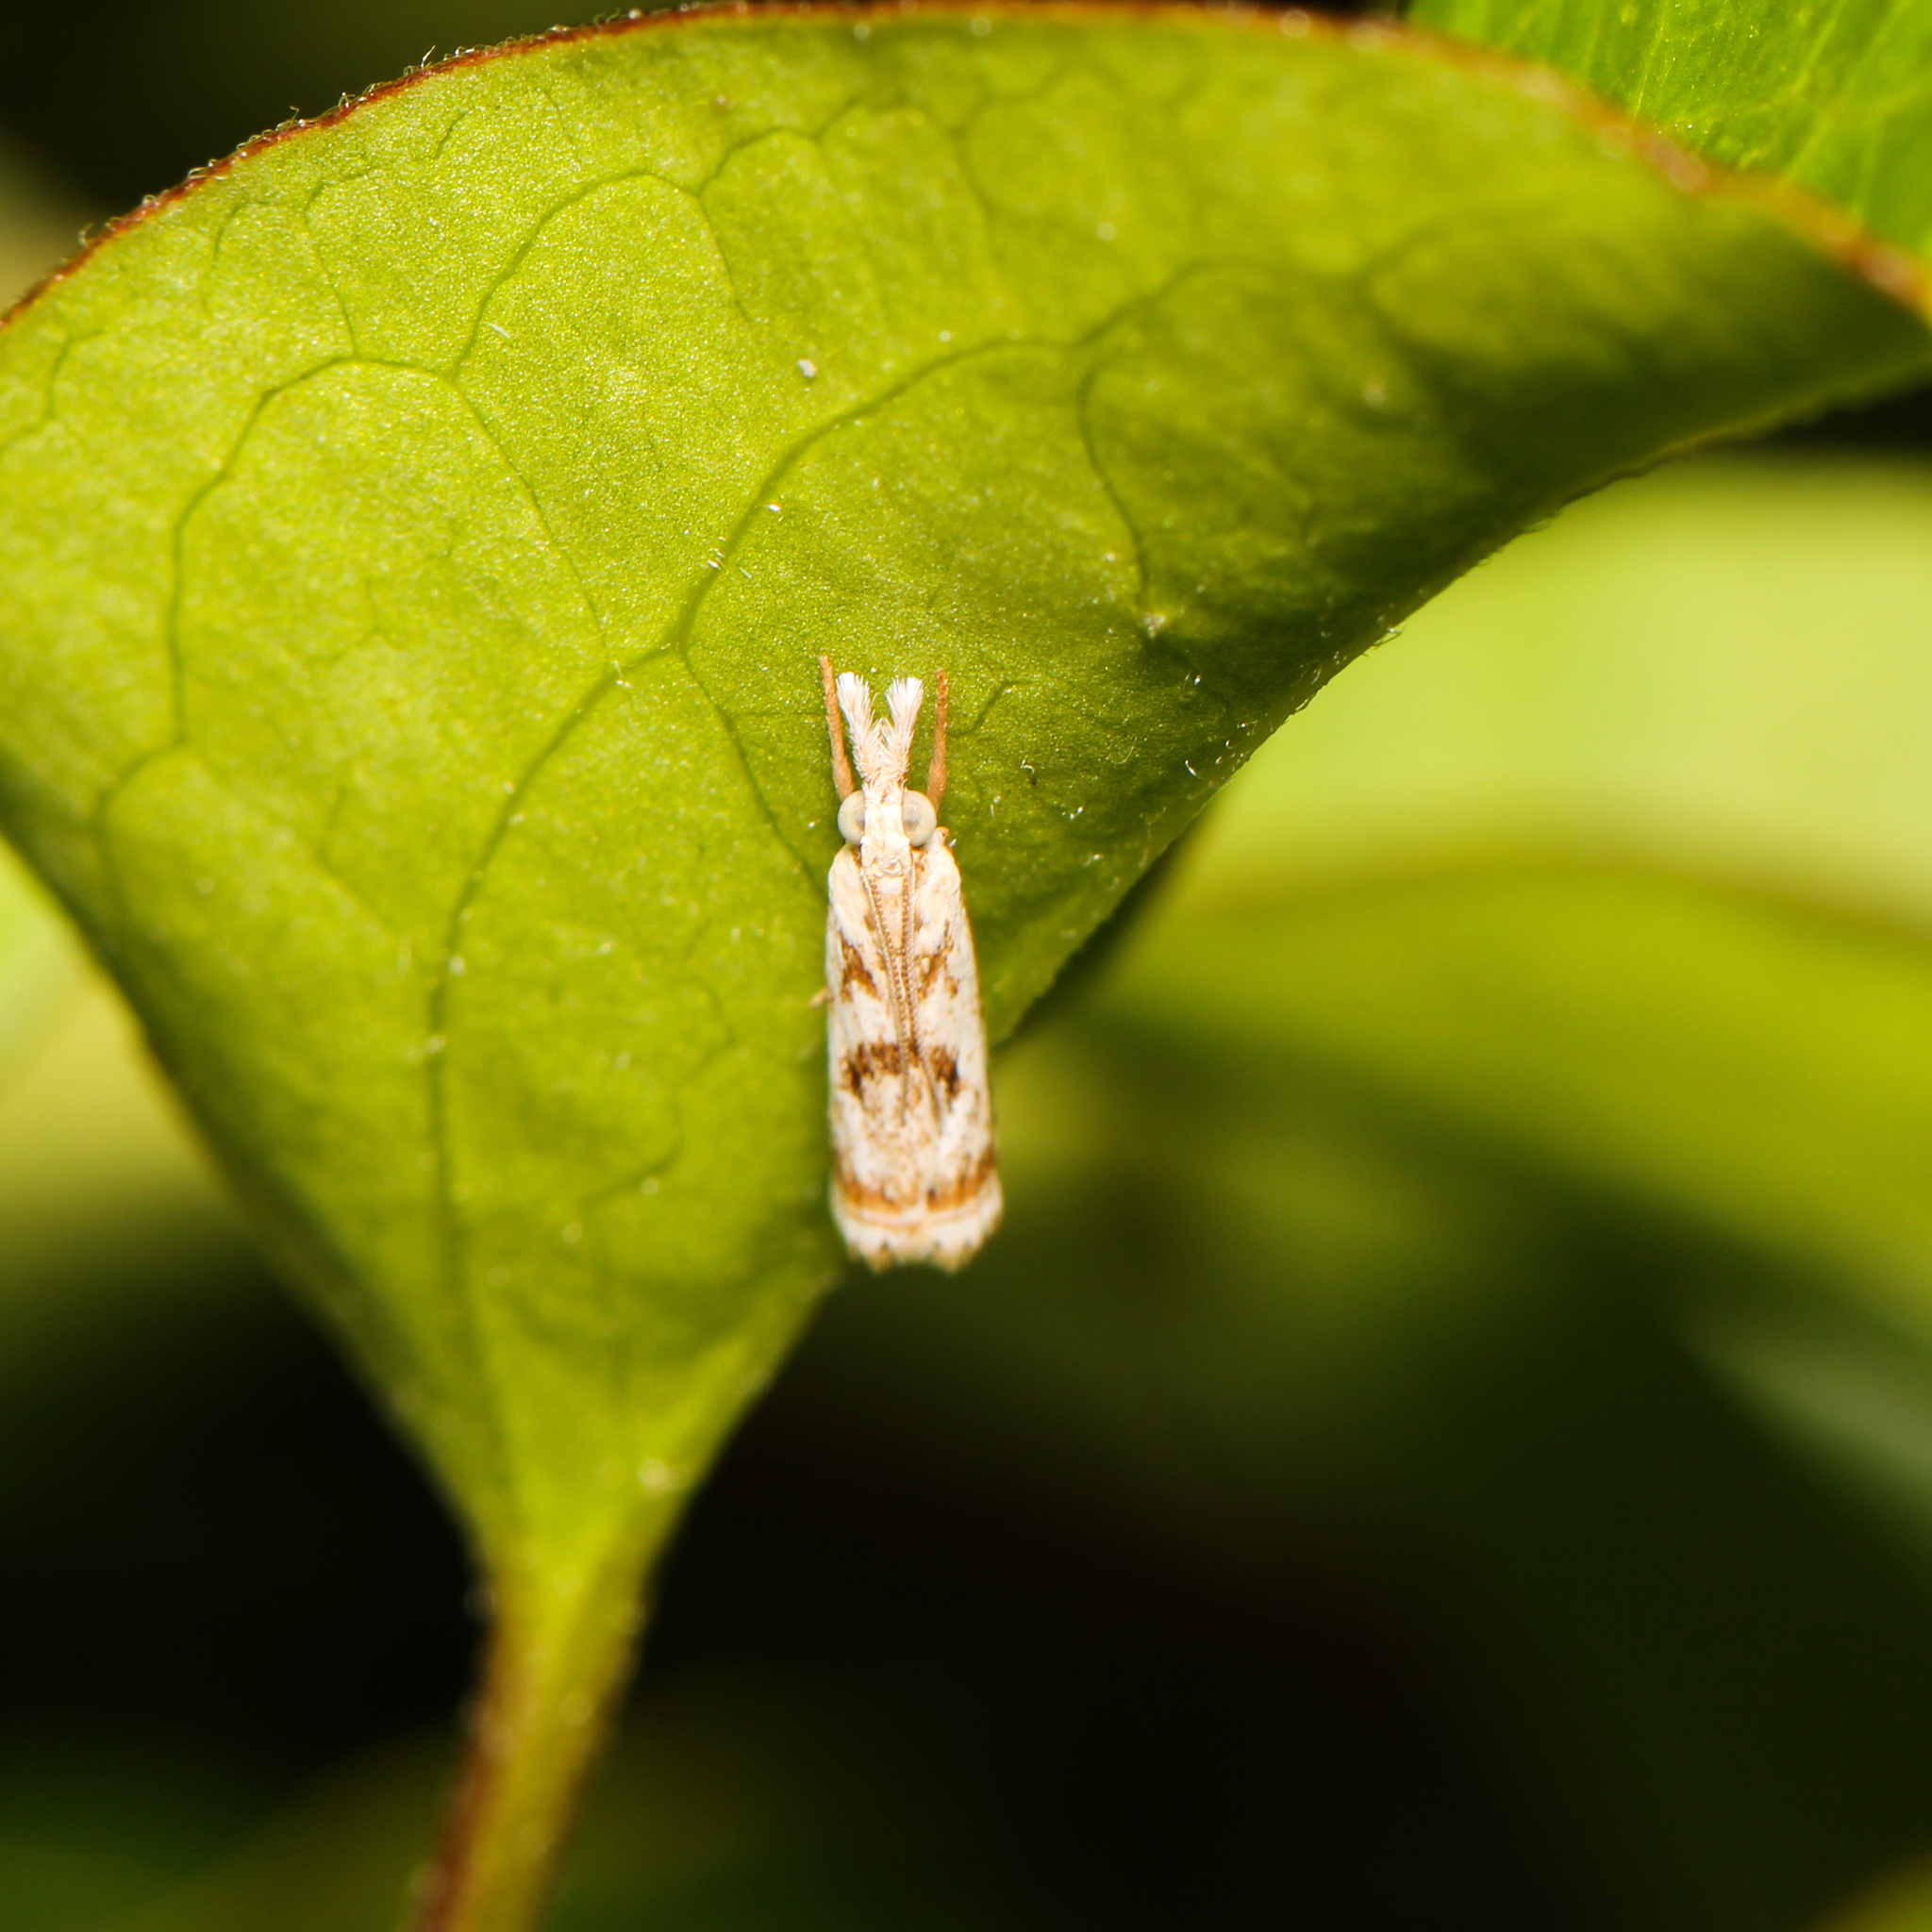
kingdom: Animalia
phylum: Arthropoda
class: Insecta
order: Lepidoptera
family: Crambidae
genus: Microcrambus
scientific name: Microcrambus elegans
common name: Elegant grass-veneer
